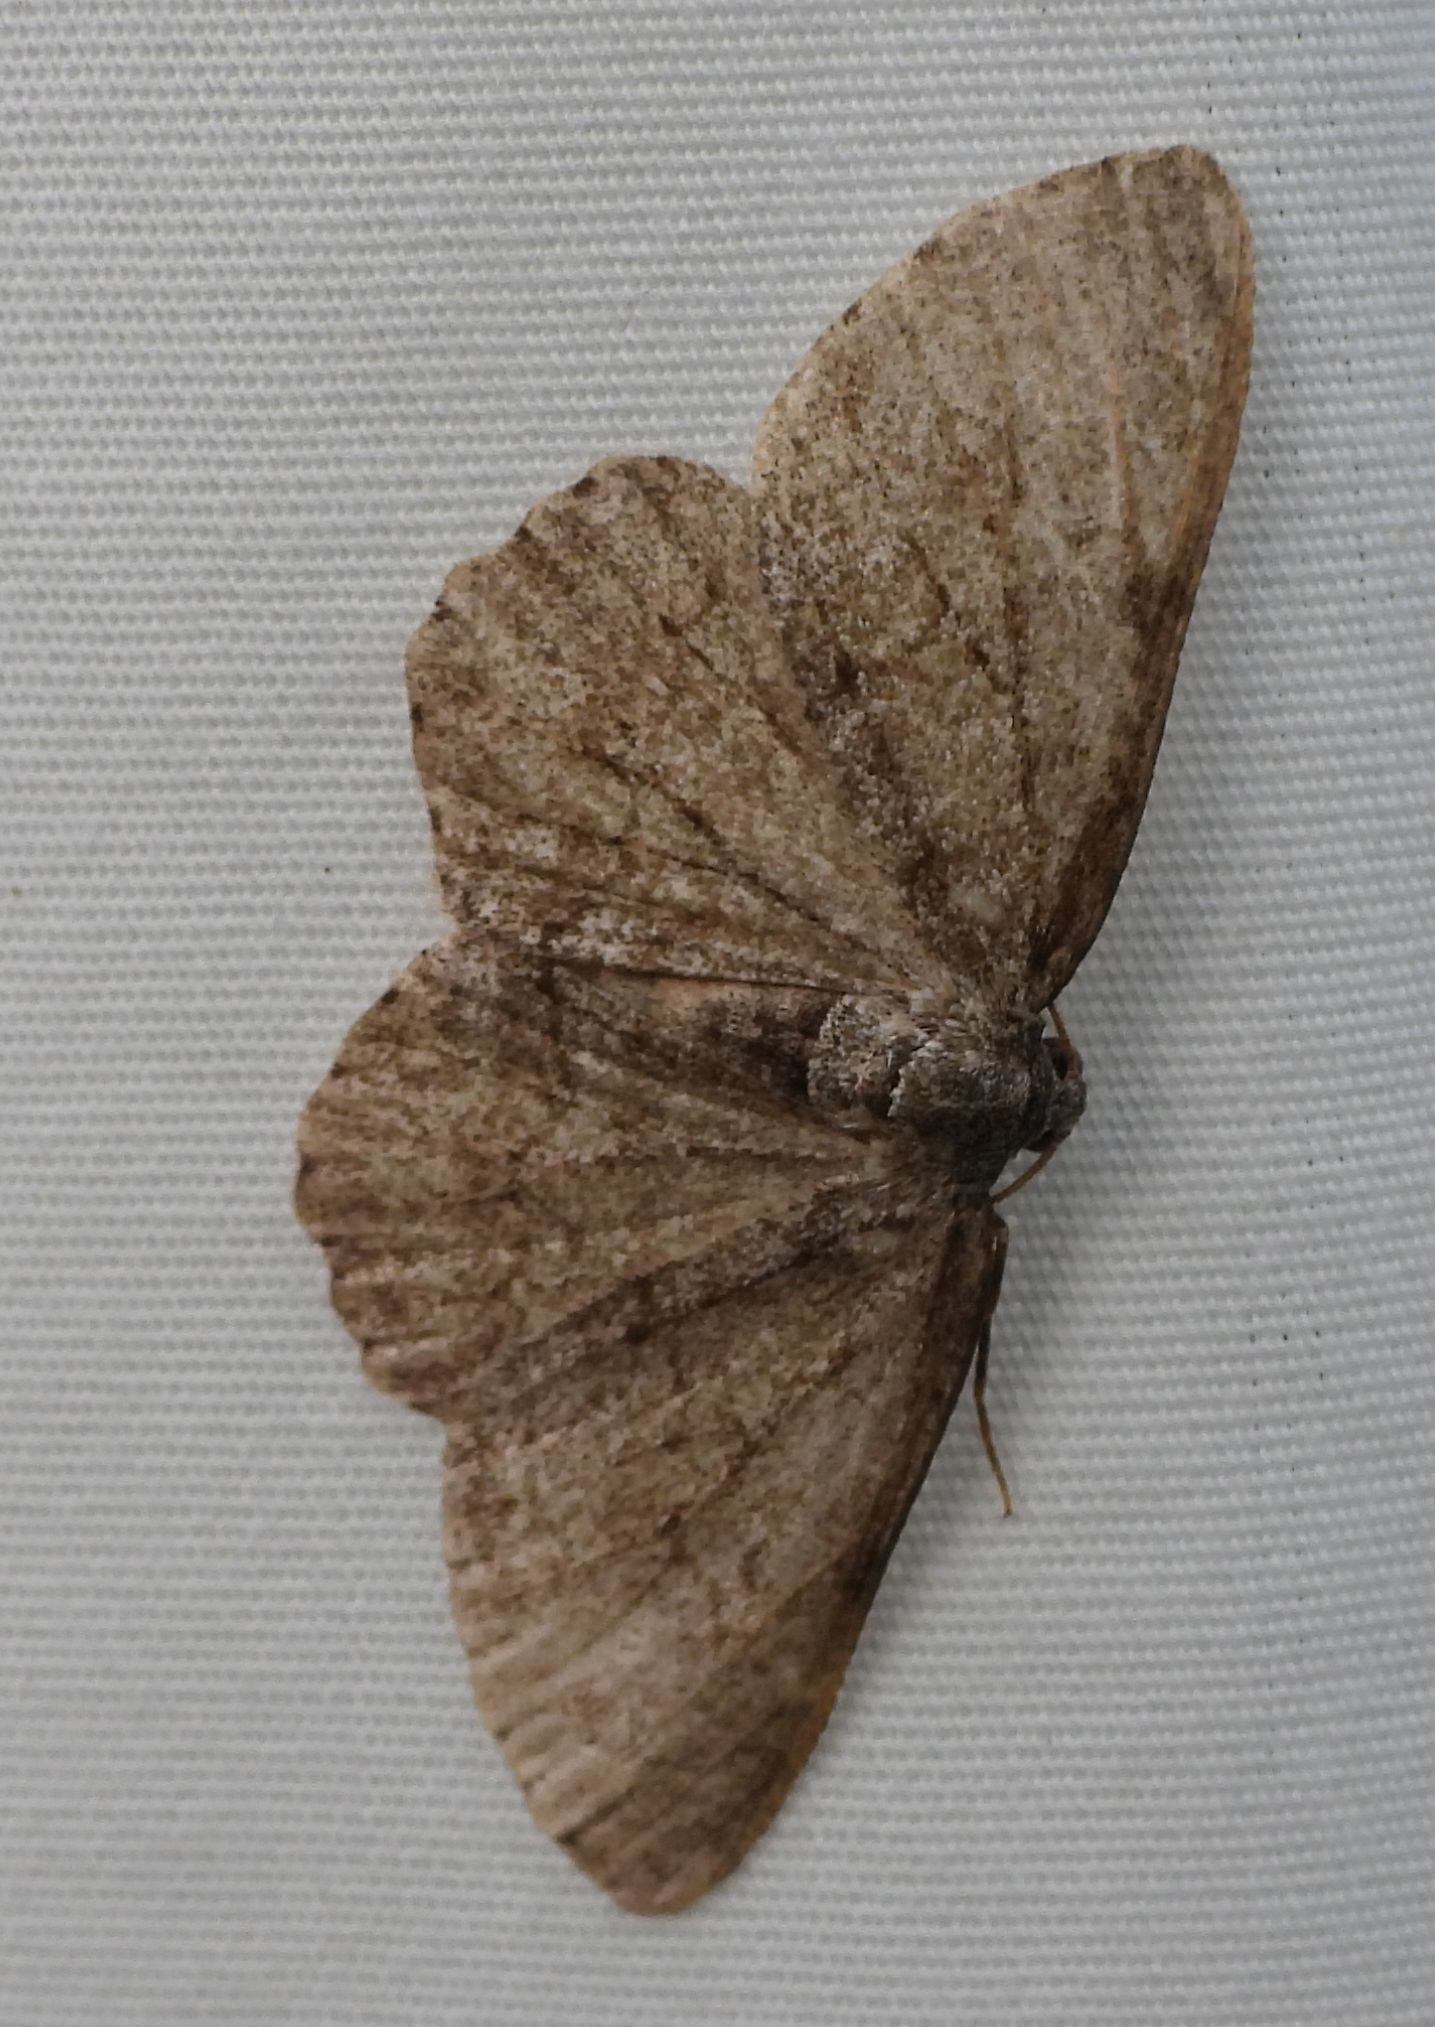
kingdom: Animalia
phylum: Arthropoda
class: Insecta
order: Lepidoptera
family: Geometridae
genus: Ectropis
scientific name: Ectropis crepuscularia
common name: Engrailed
